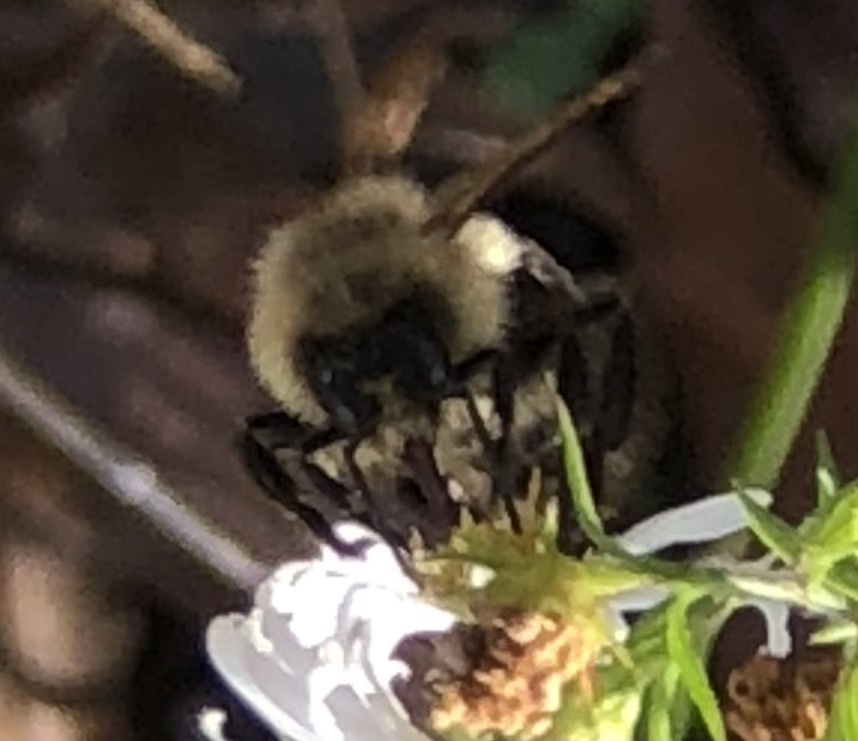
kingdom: Animalia
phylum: Arthropoda
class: Insecta
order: Hymenoptera
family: Apidae
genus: Bombus
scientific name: Bombus impatiens
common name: Common eastern bumble bee
